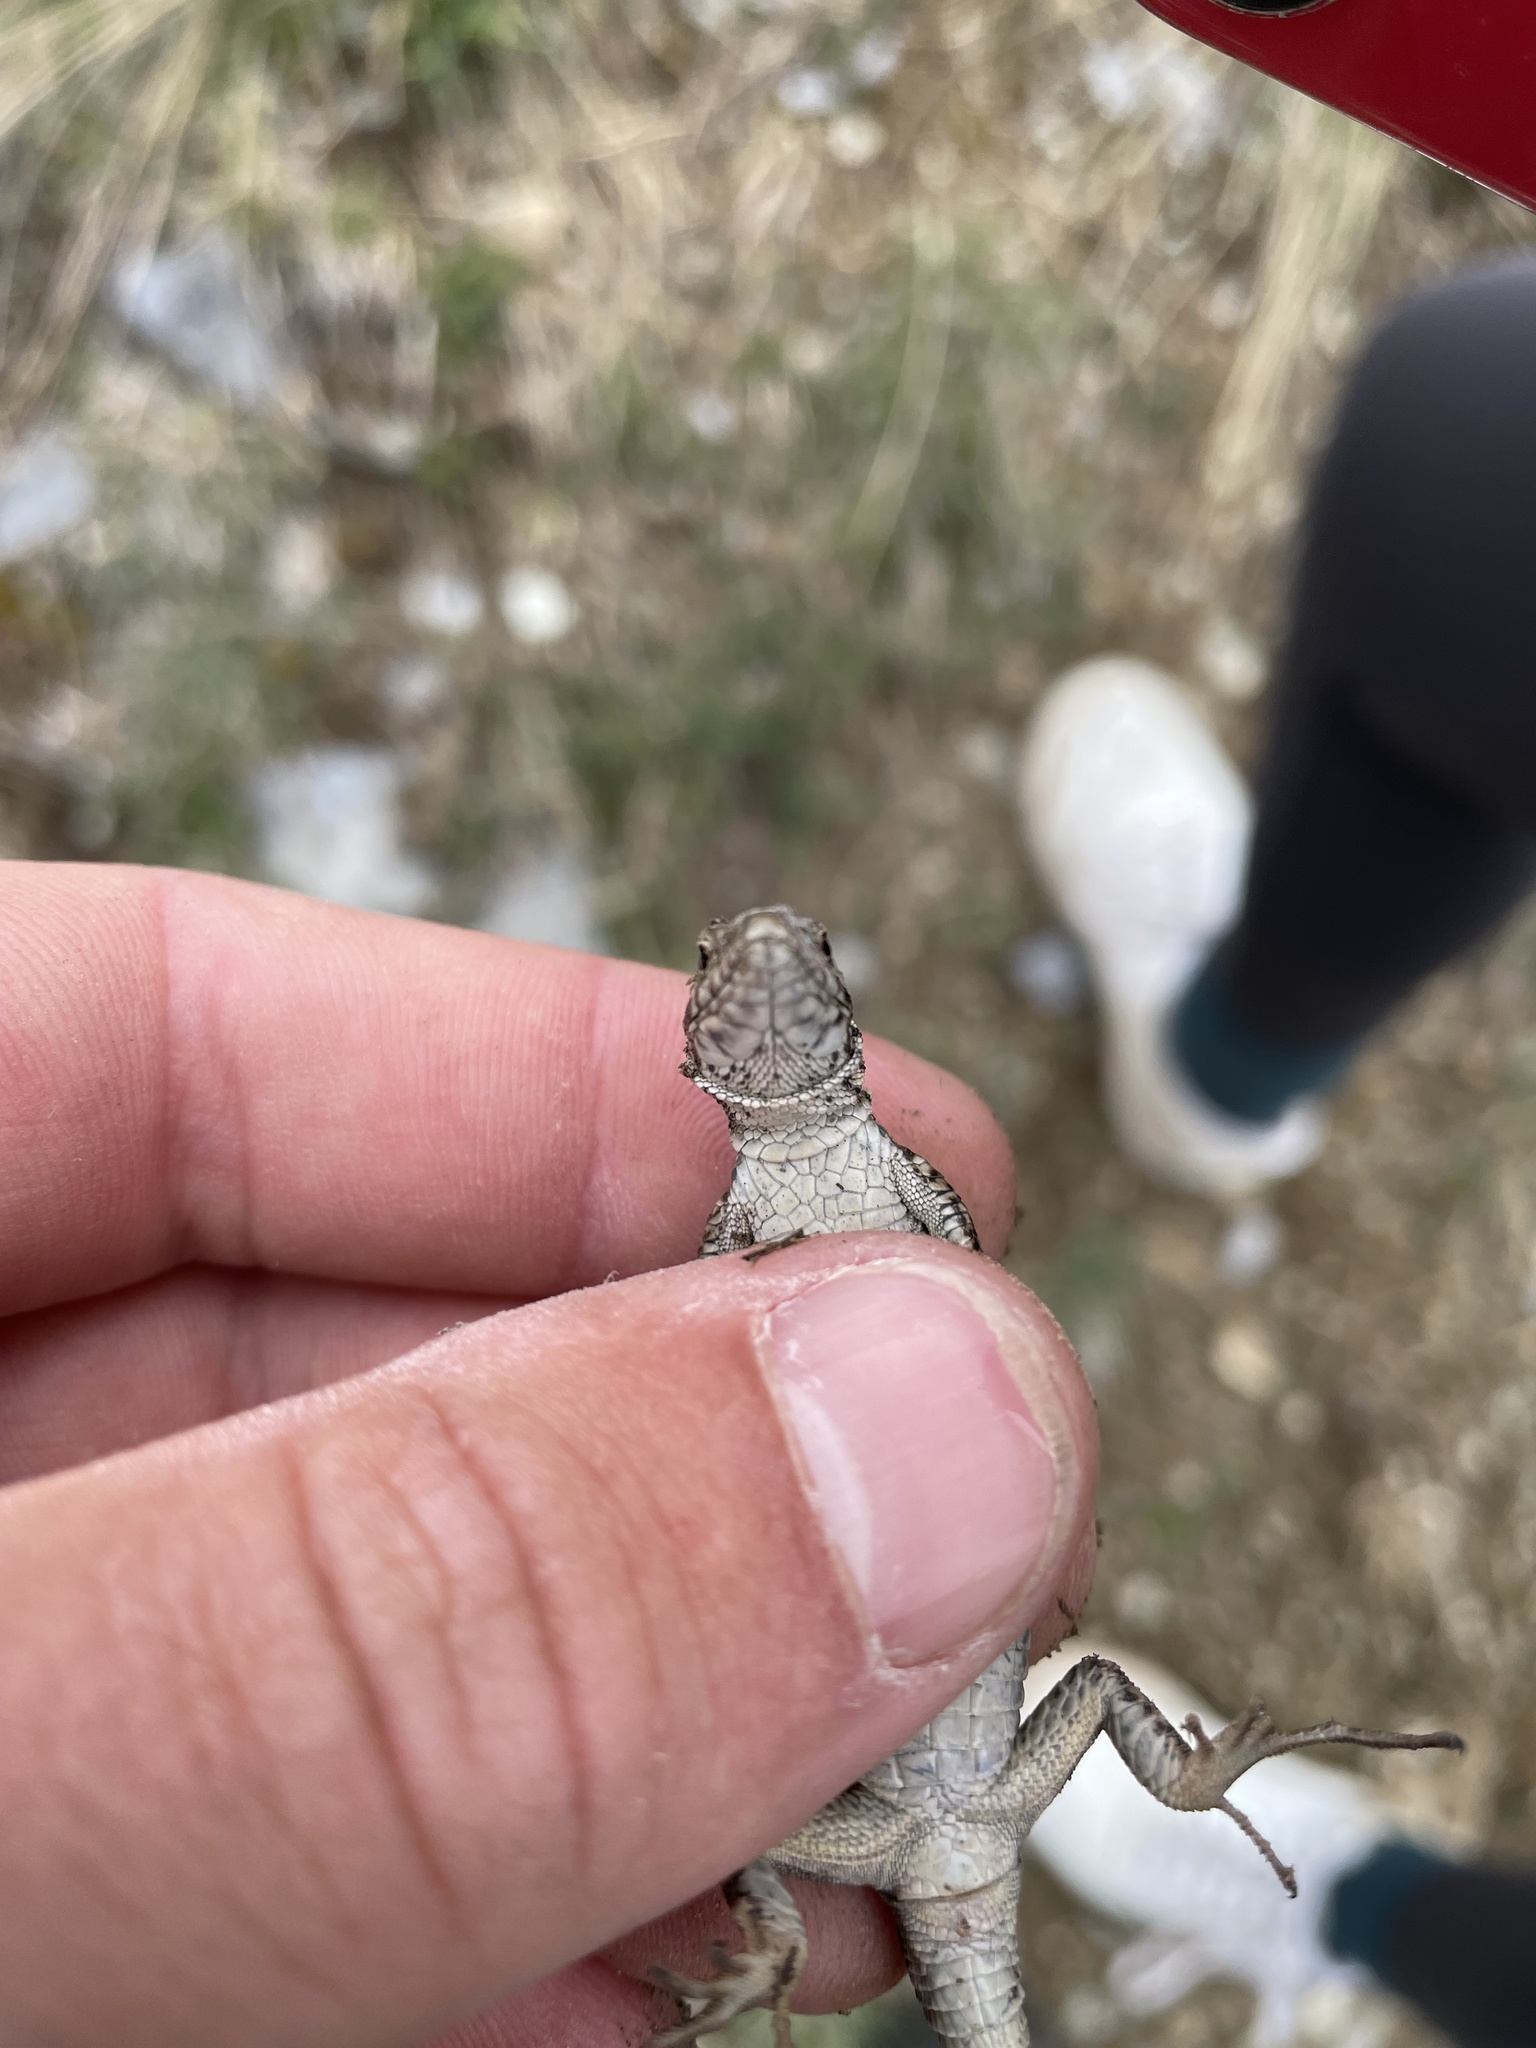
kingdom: Animalia
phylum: Chordata
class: Squamata
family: Lacertidae
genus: Podarcis
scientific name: Podarcis muralis
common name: Common wall lizard
